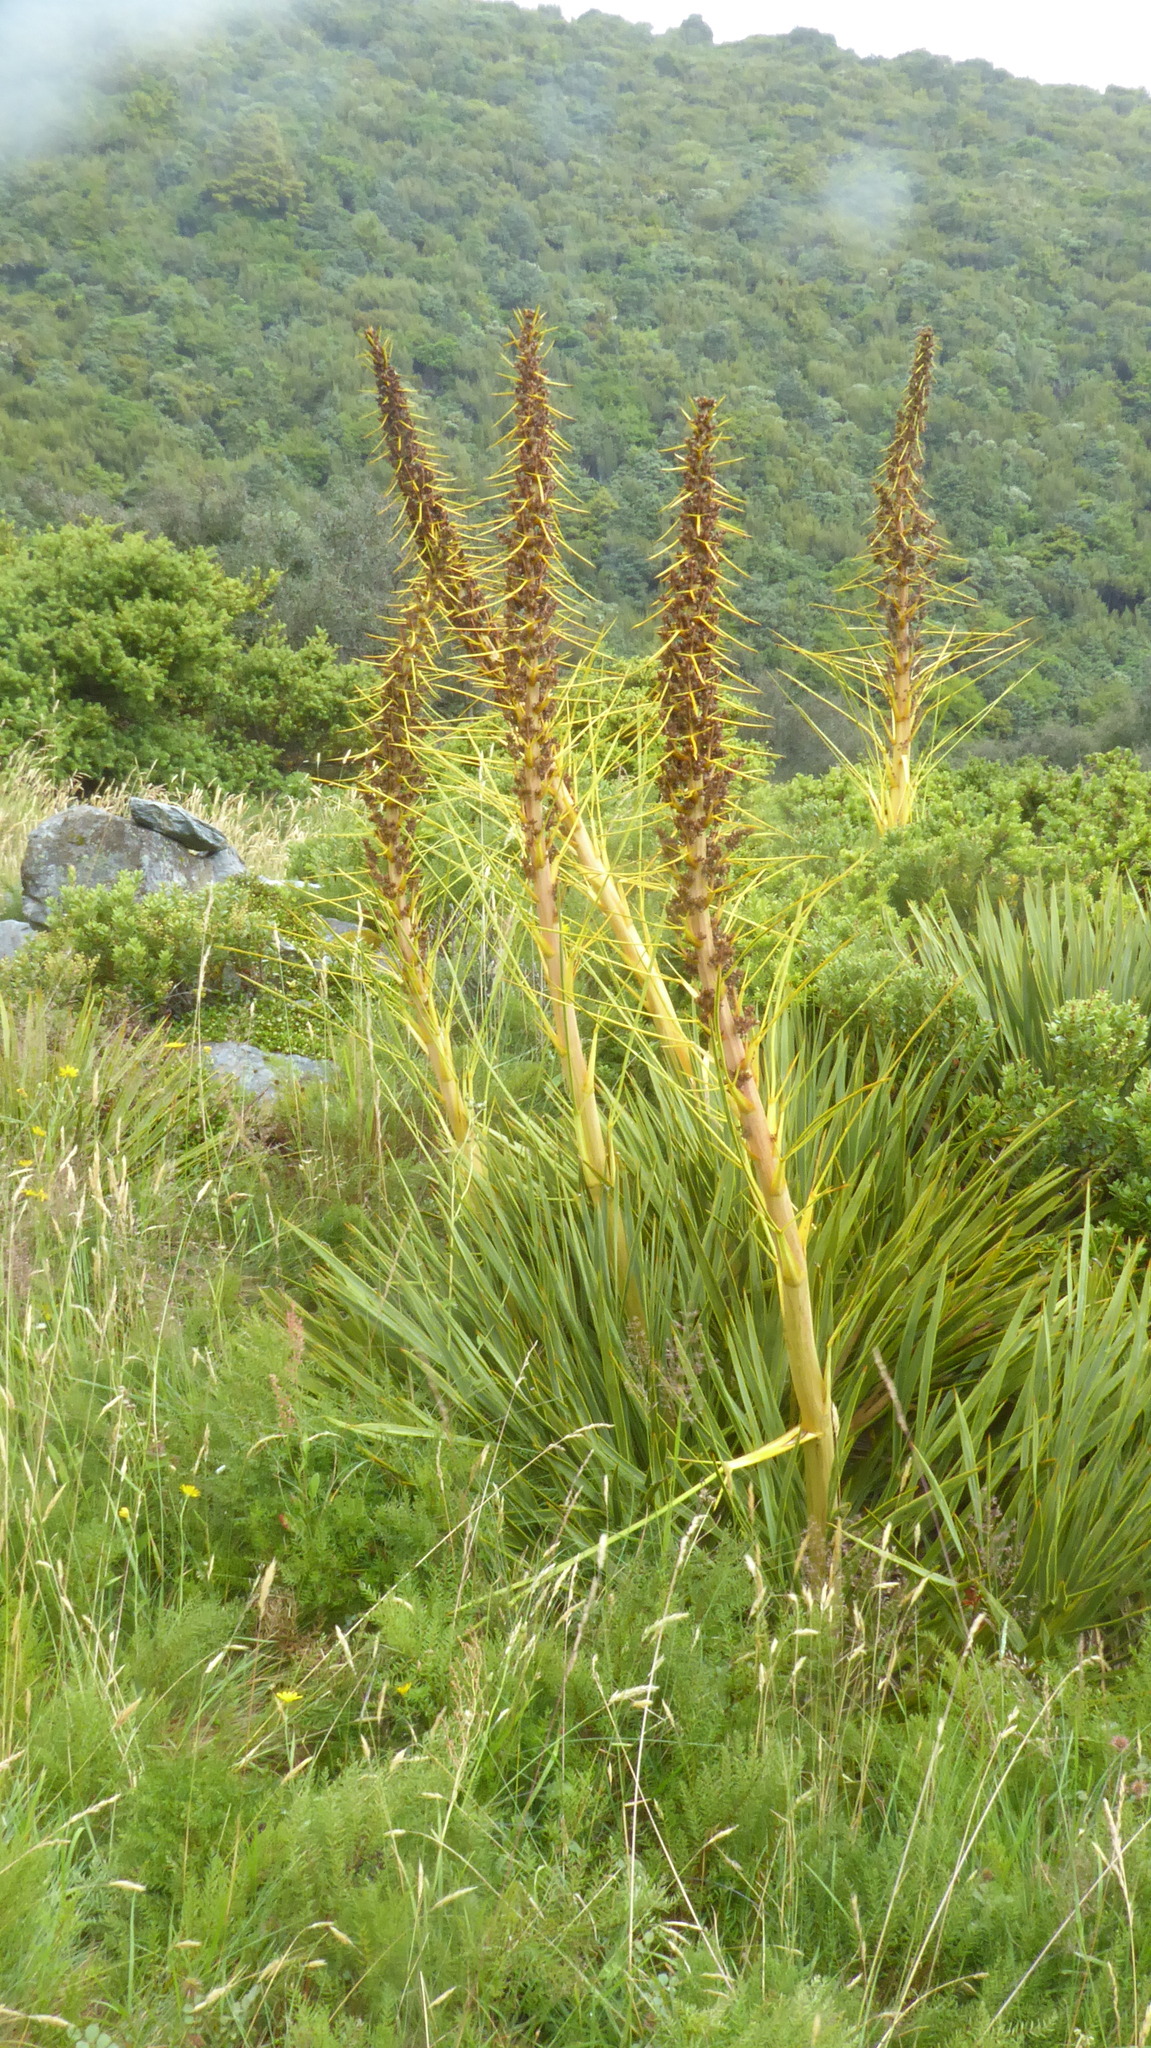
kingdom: Plantae
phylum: Tracheophyta
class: Magnoliopsida
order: Apiales
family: Apiaceae
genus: Aciphylla
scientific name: Aciphylla aurea
